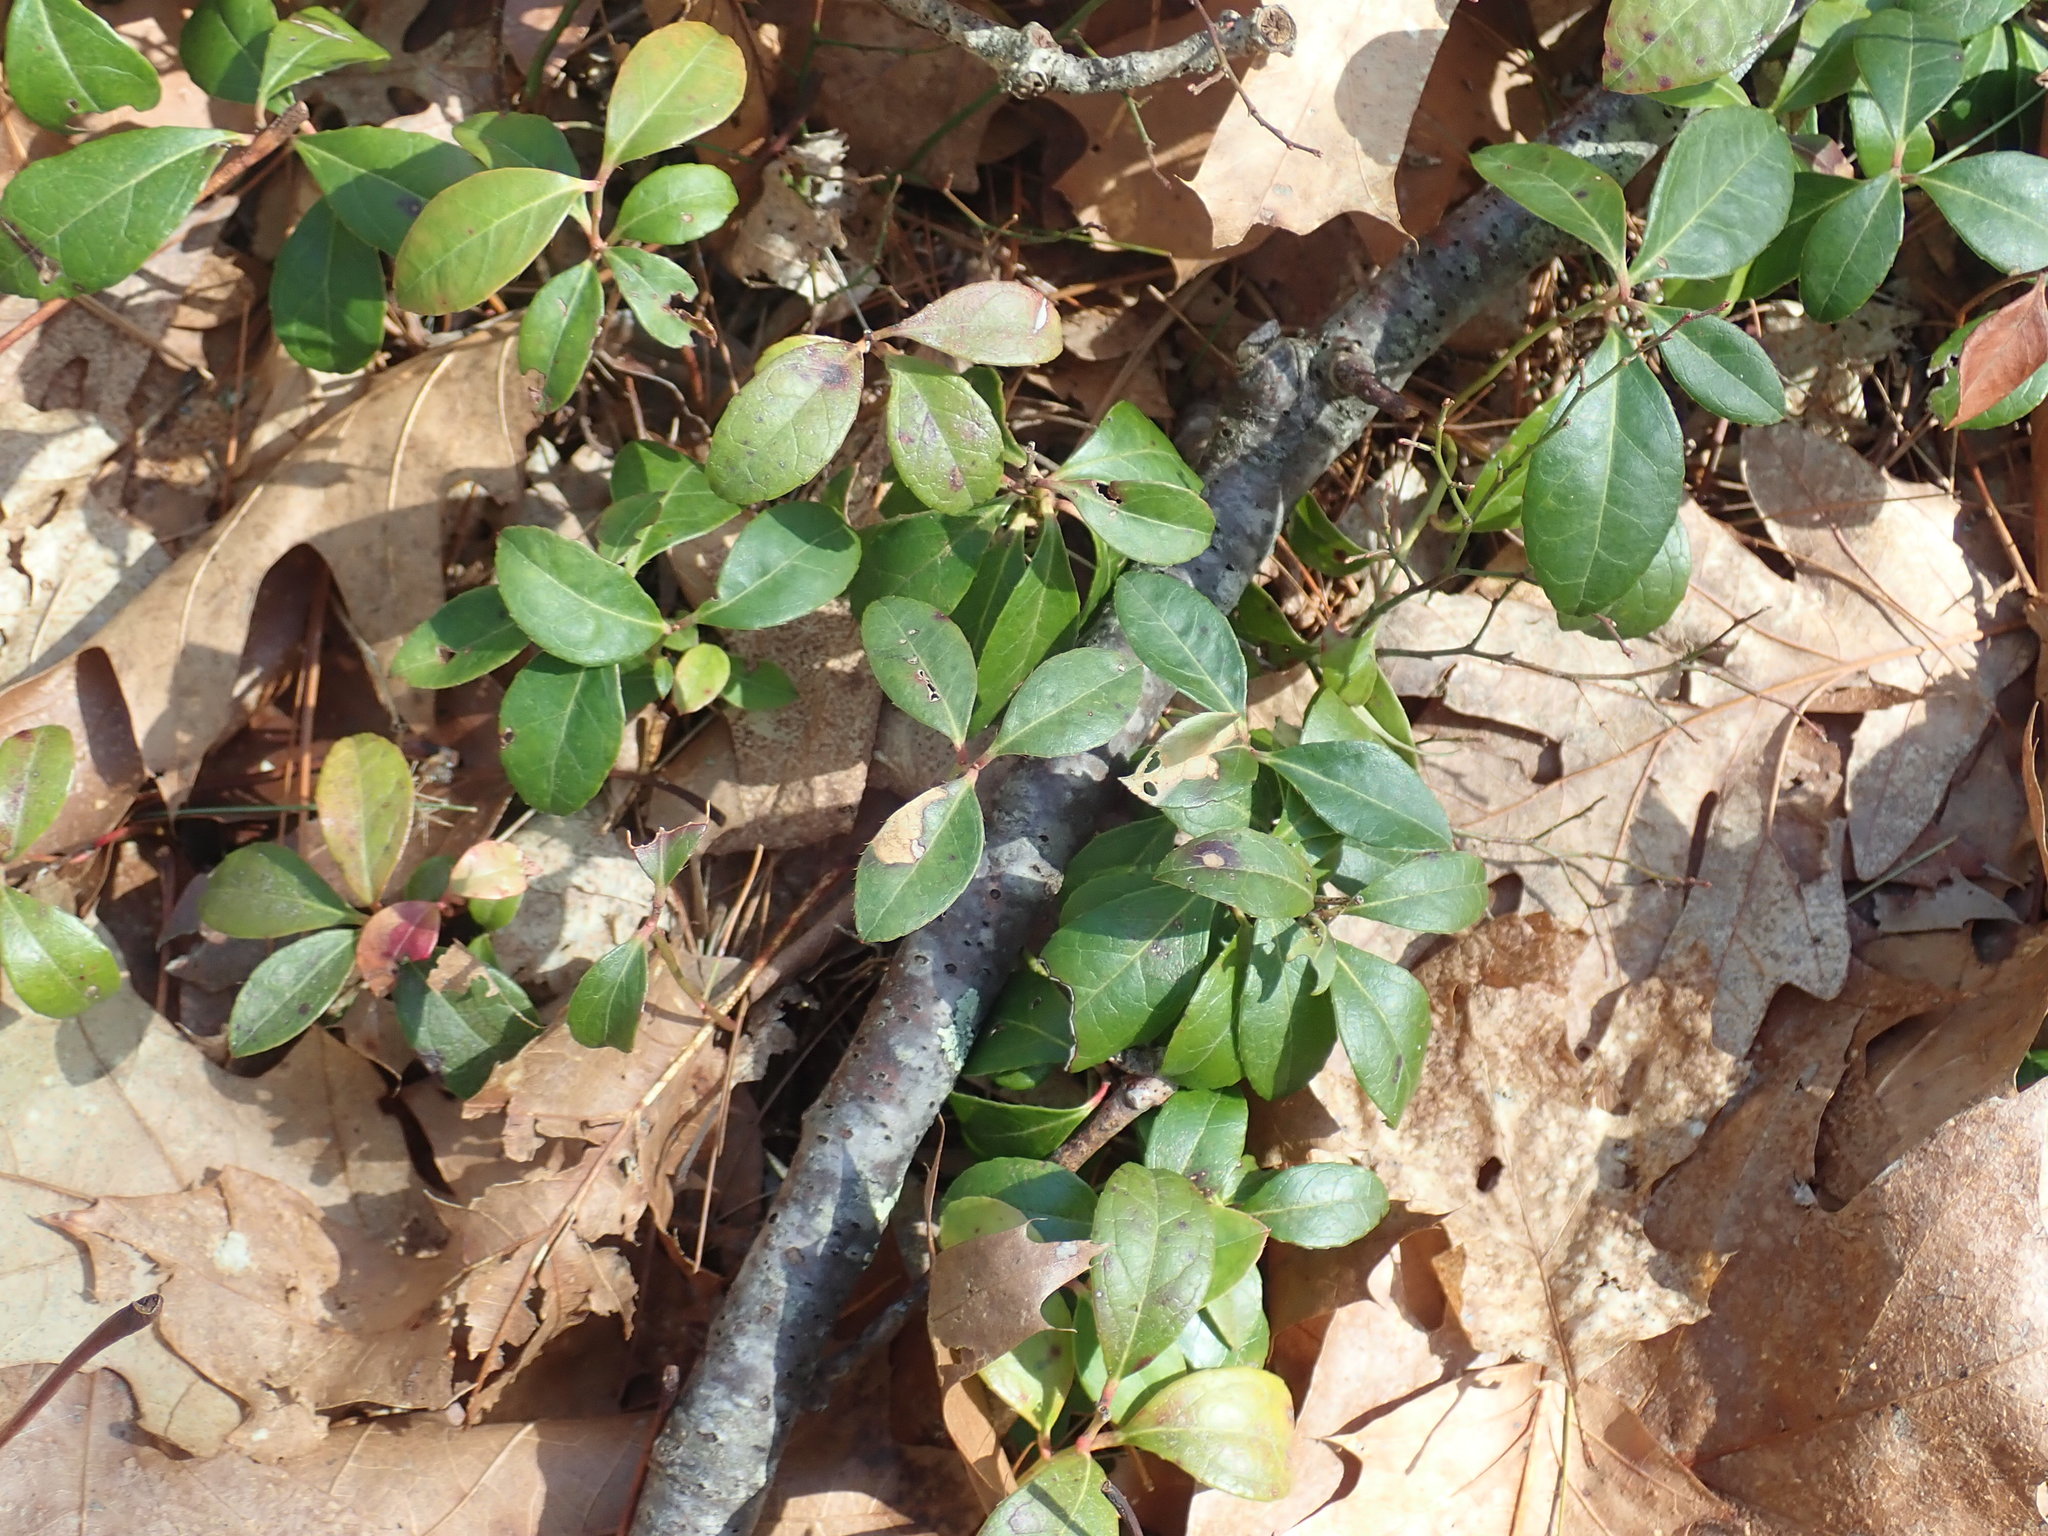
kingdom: Plantae
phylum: Tracheophyta
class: Magnoliopsida
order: Ericales
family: Ericaceae
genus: Gaultheria
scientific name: Gaultheria procumbens
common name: Checkerberry
